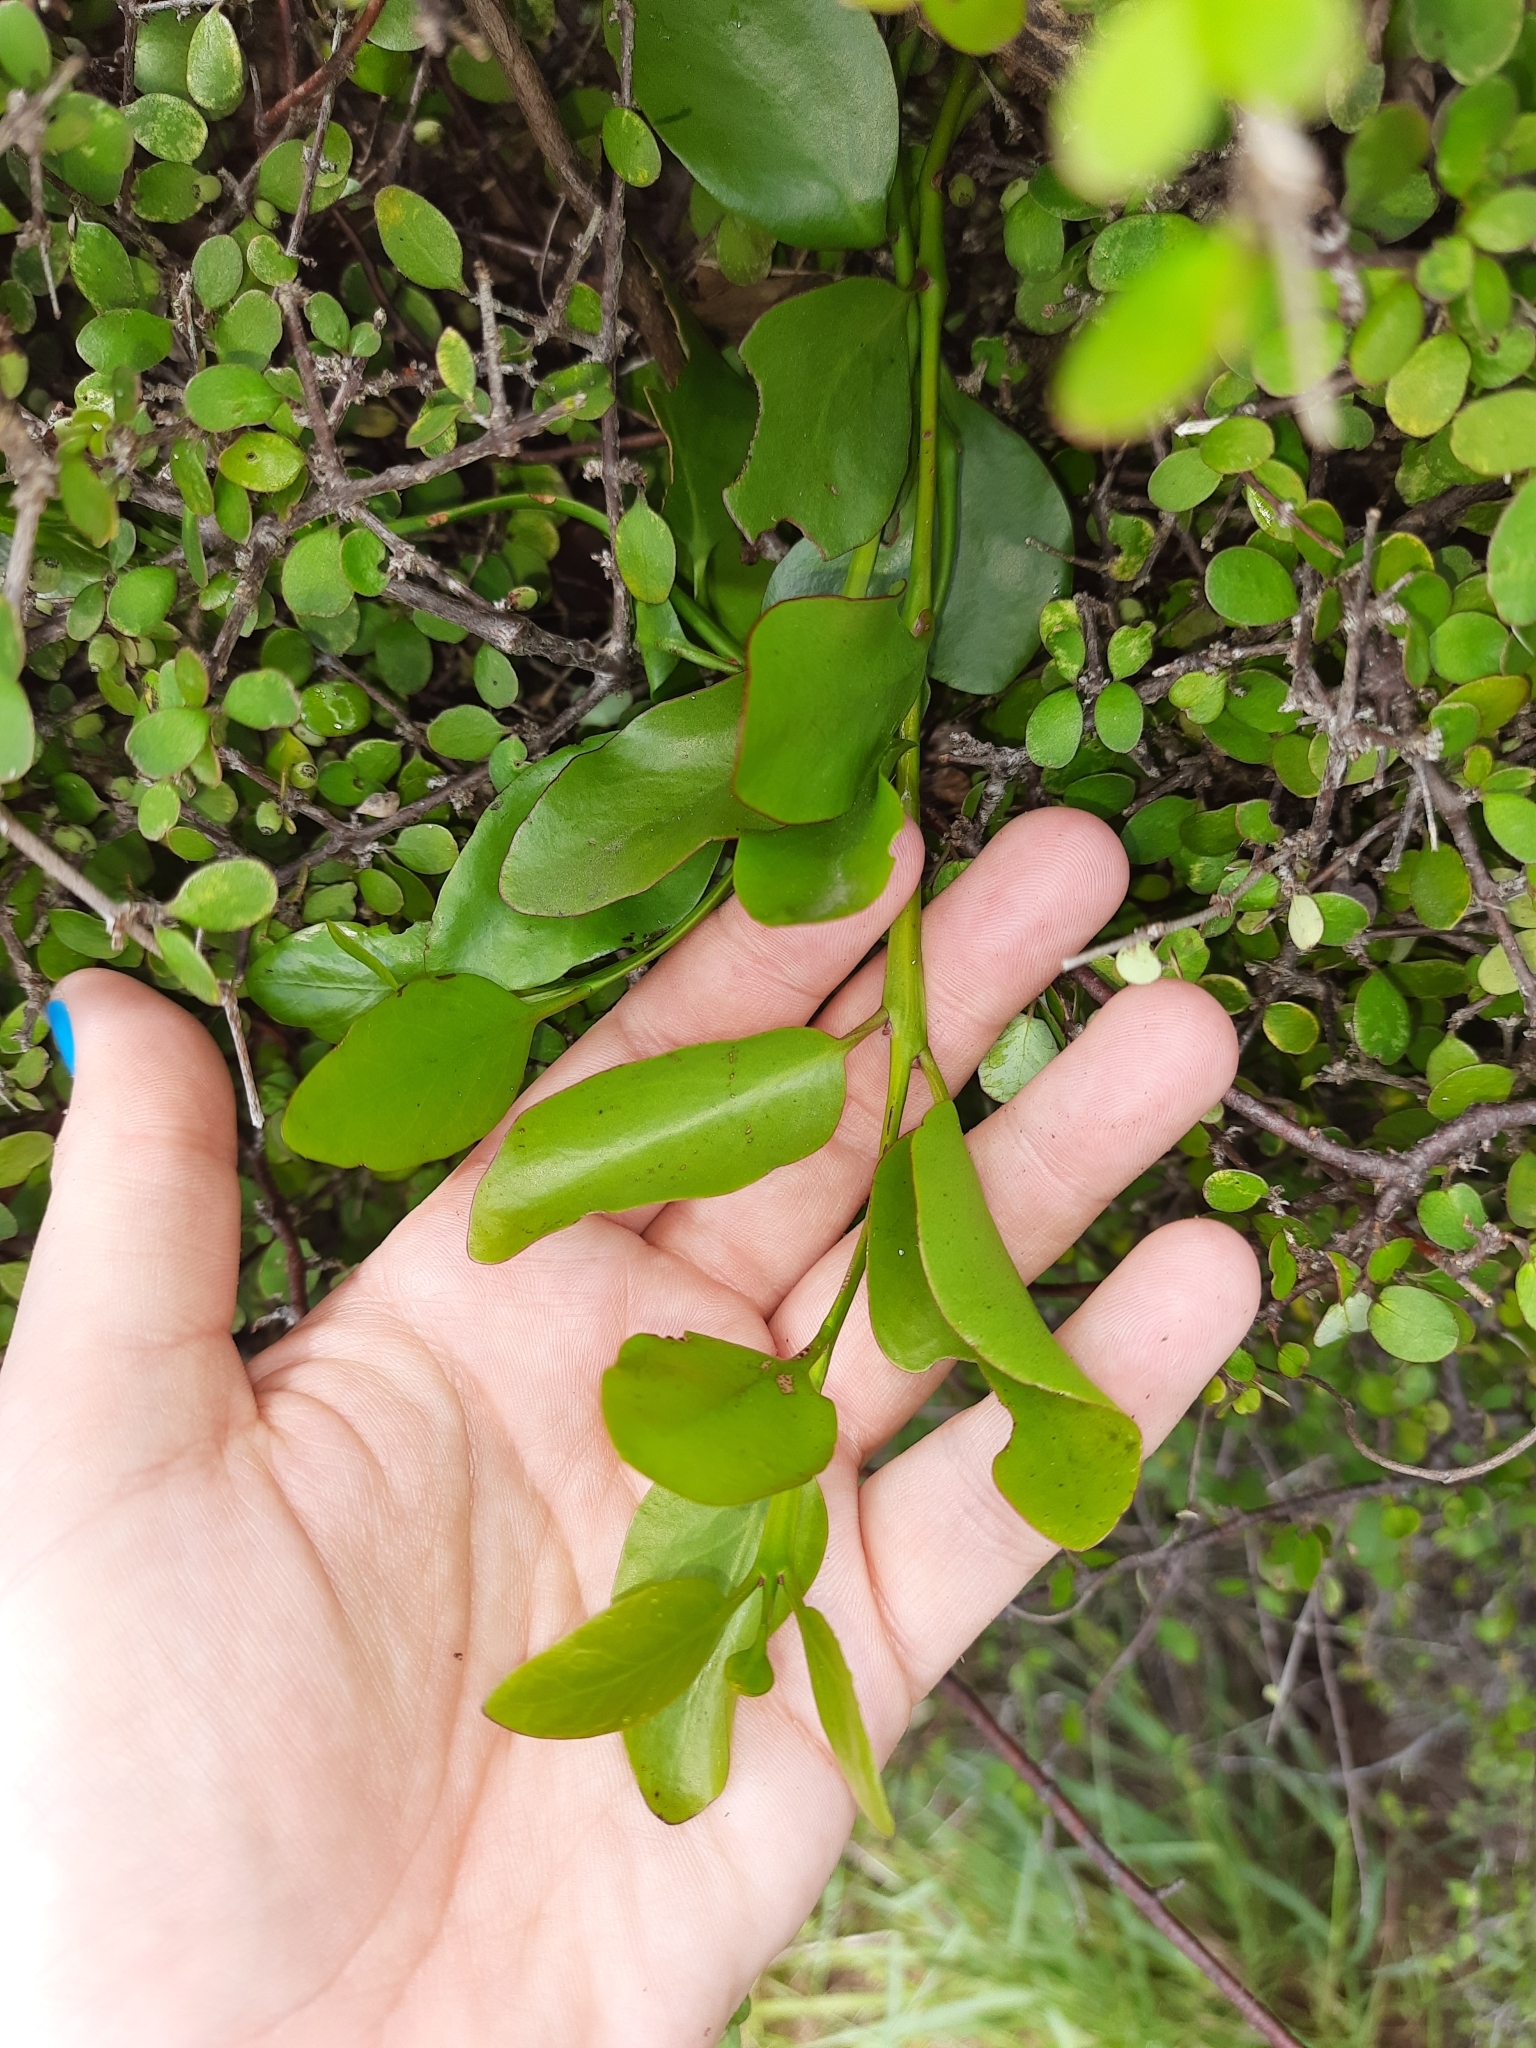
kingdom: Plantae
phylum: Tracheophyta
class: Magnoliopsida
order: Santalales
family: Loranthaceae
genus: Ileostylus
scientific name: Ileostylus micranthus
